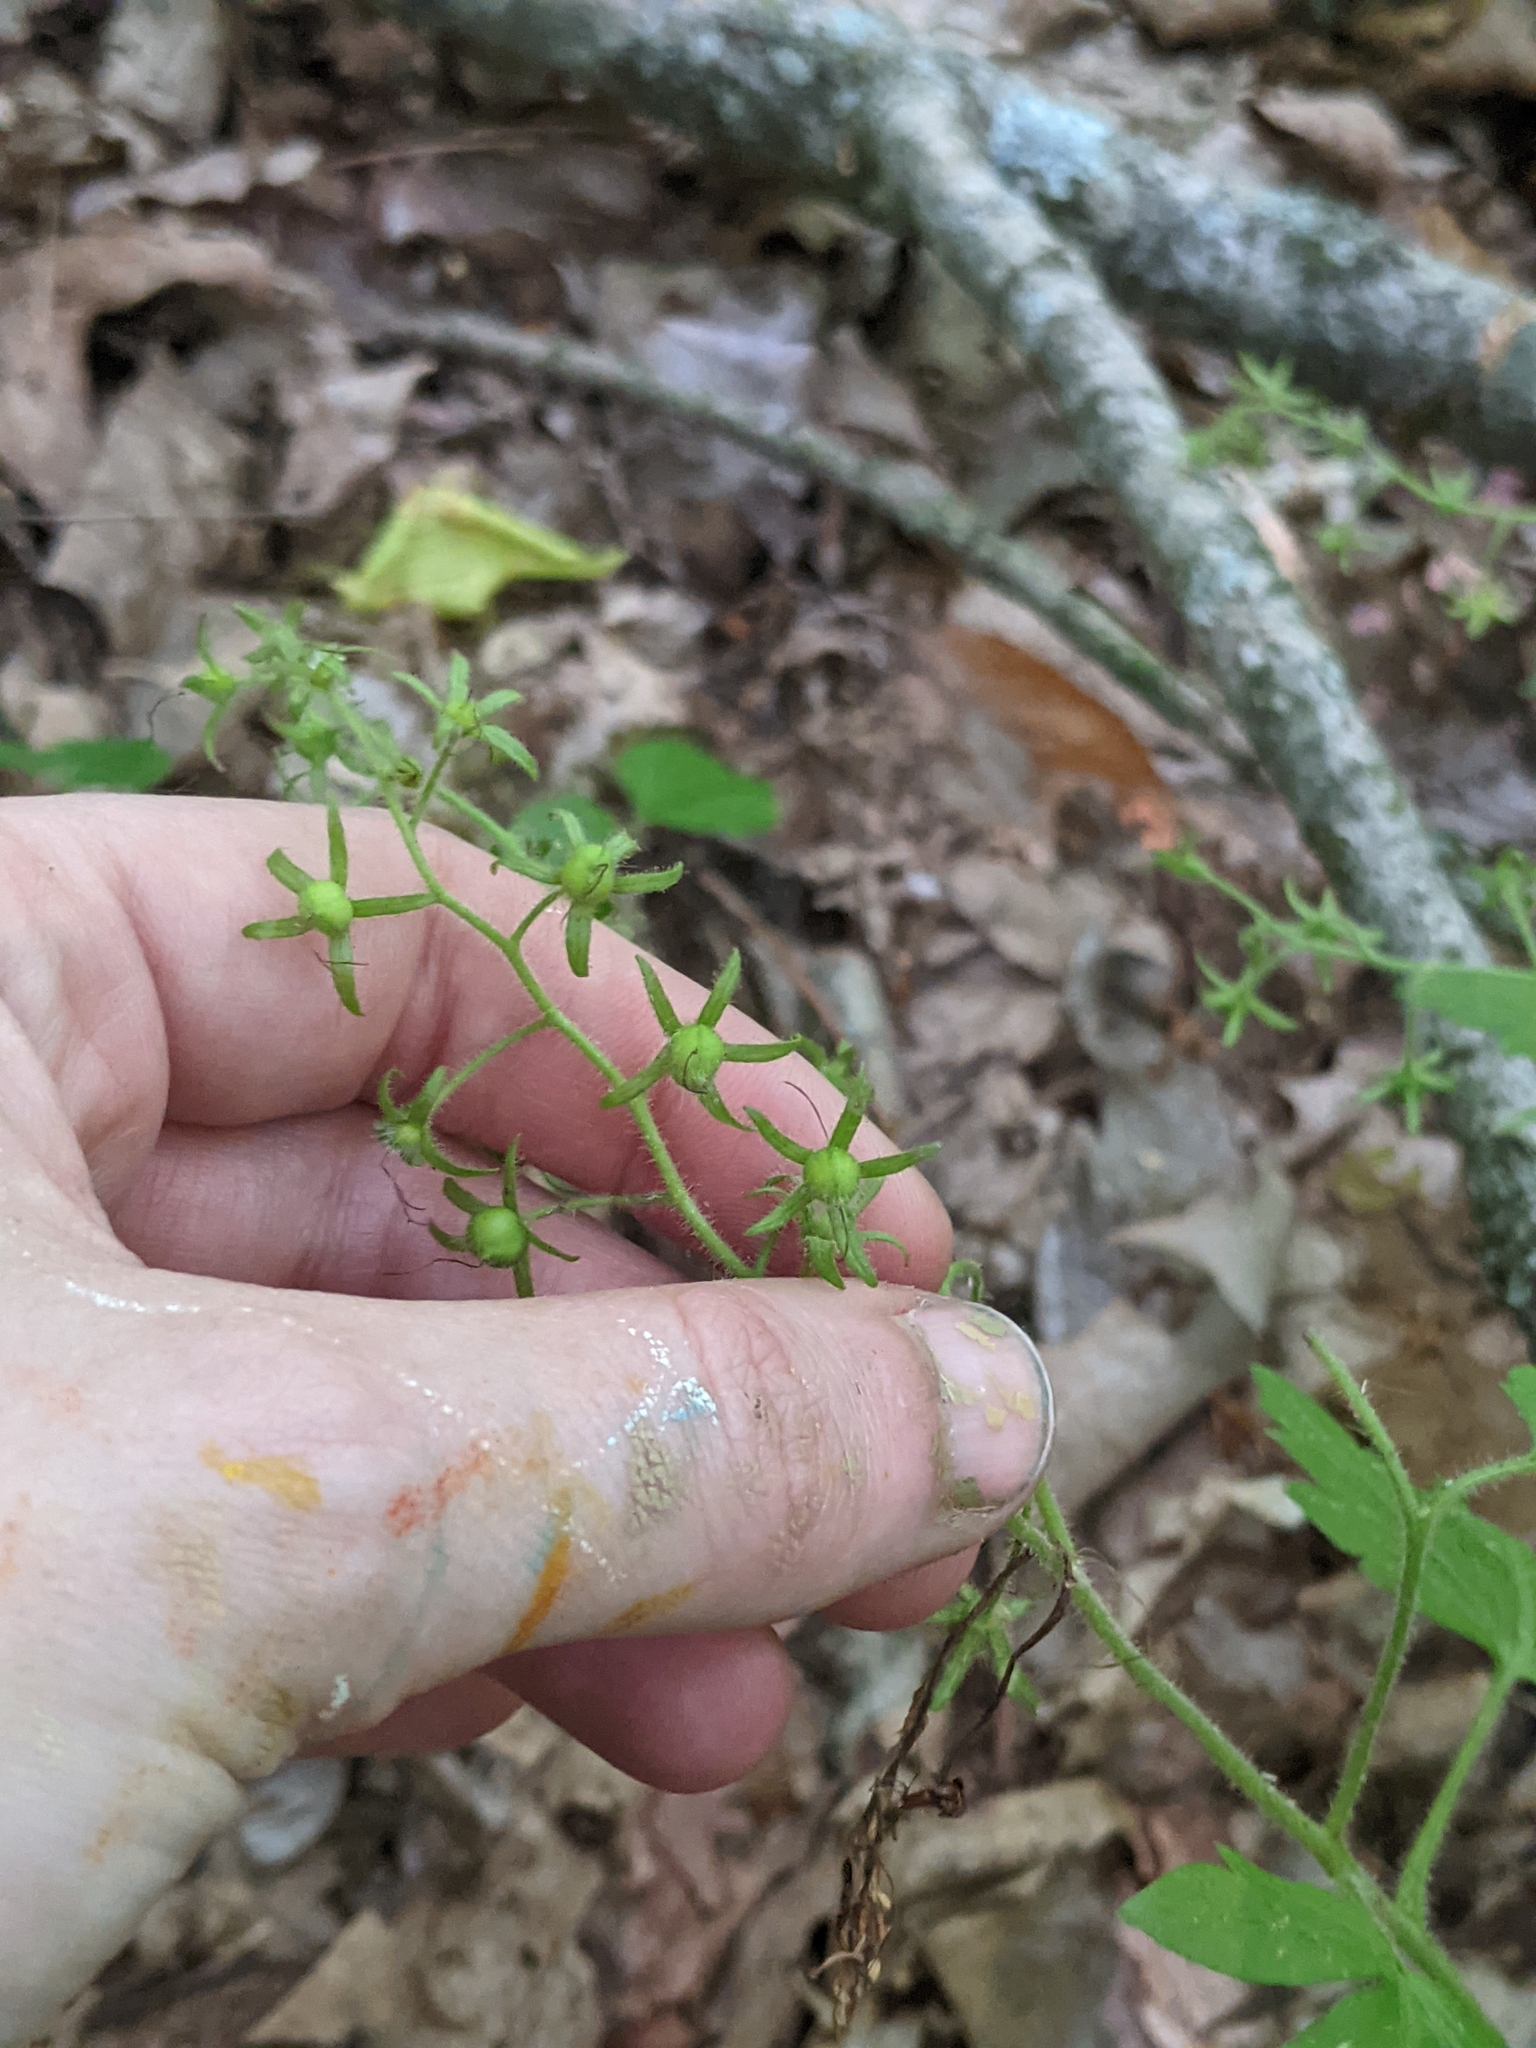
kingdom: Plantae
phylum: Tracheophyta
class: Magnoliopsida
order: Boraginales
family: Hydrophyllaceae
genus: Phacelia
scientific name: Phacelia bipinnatifida
